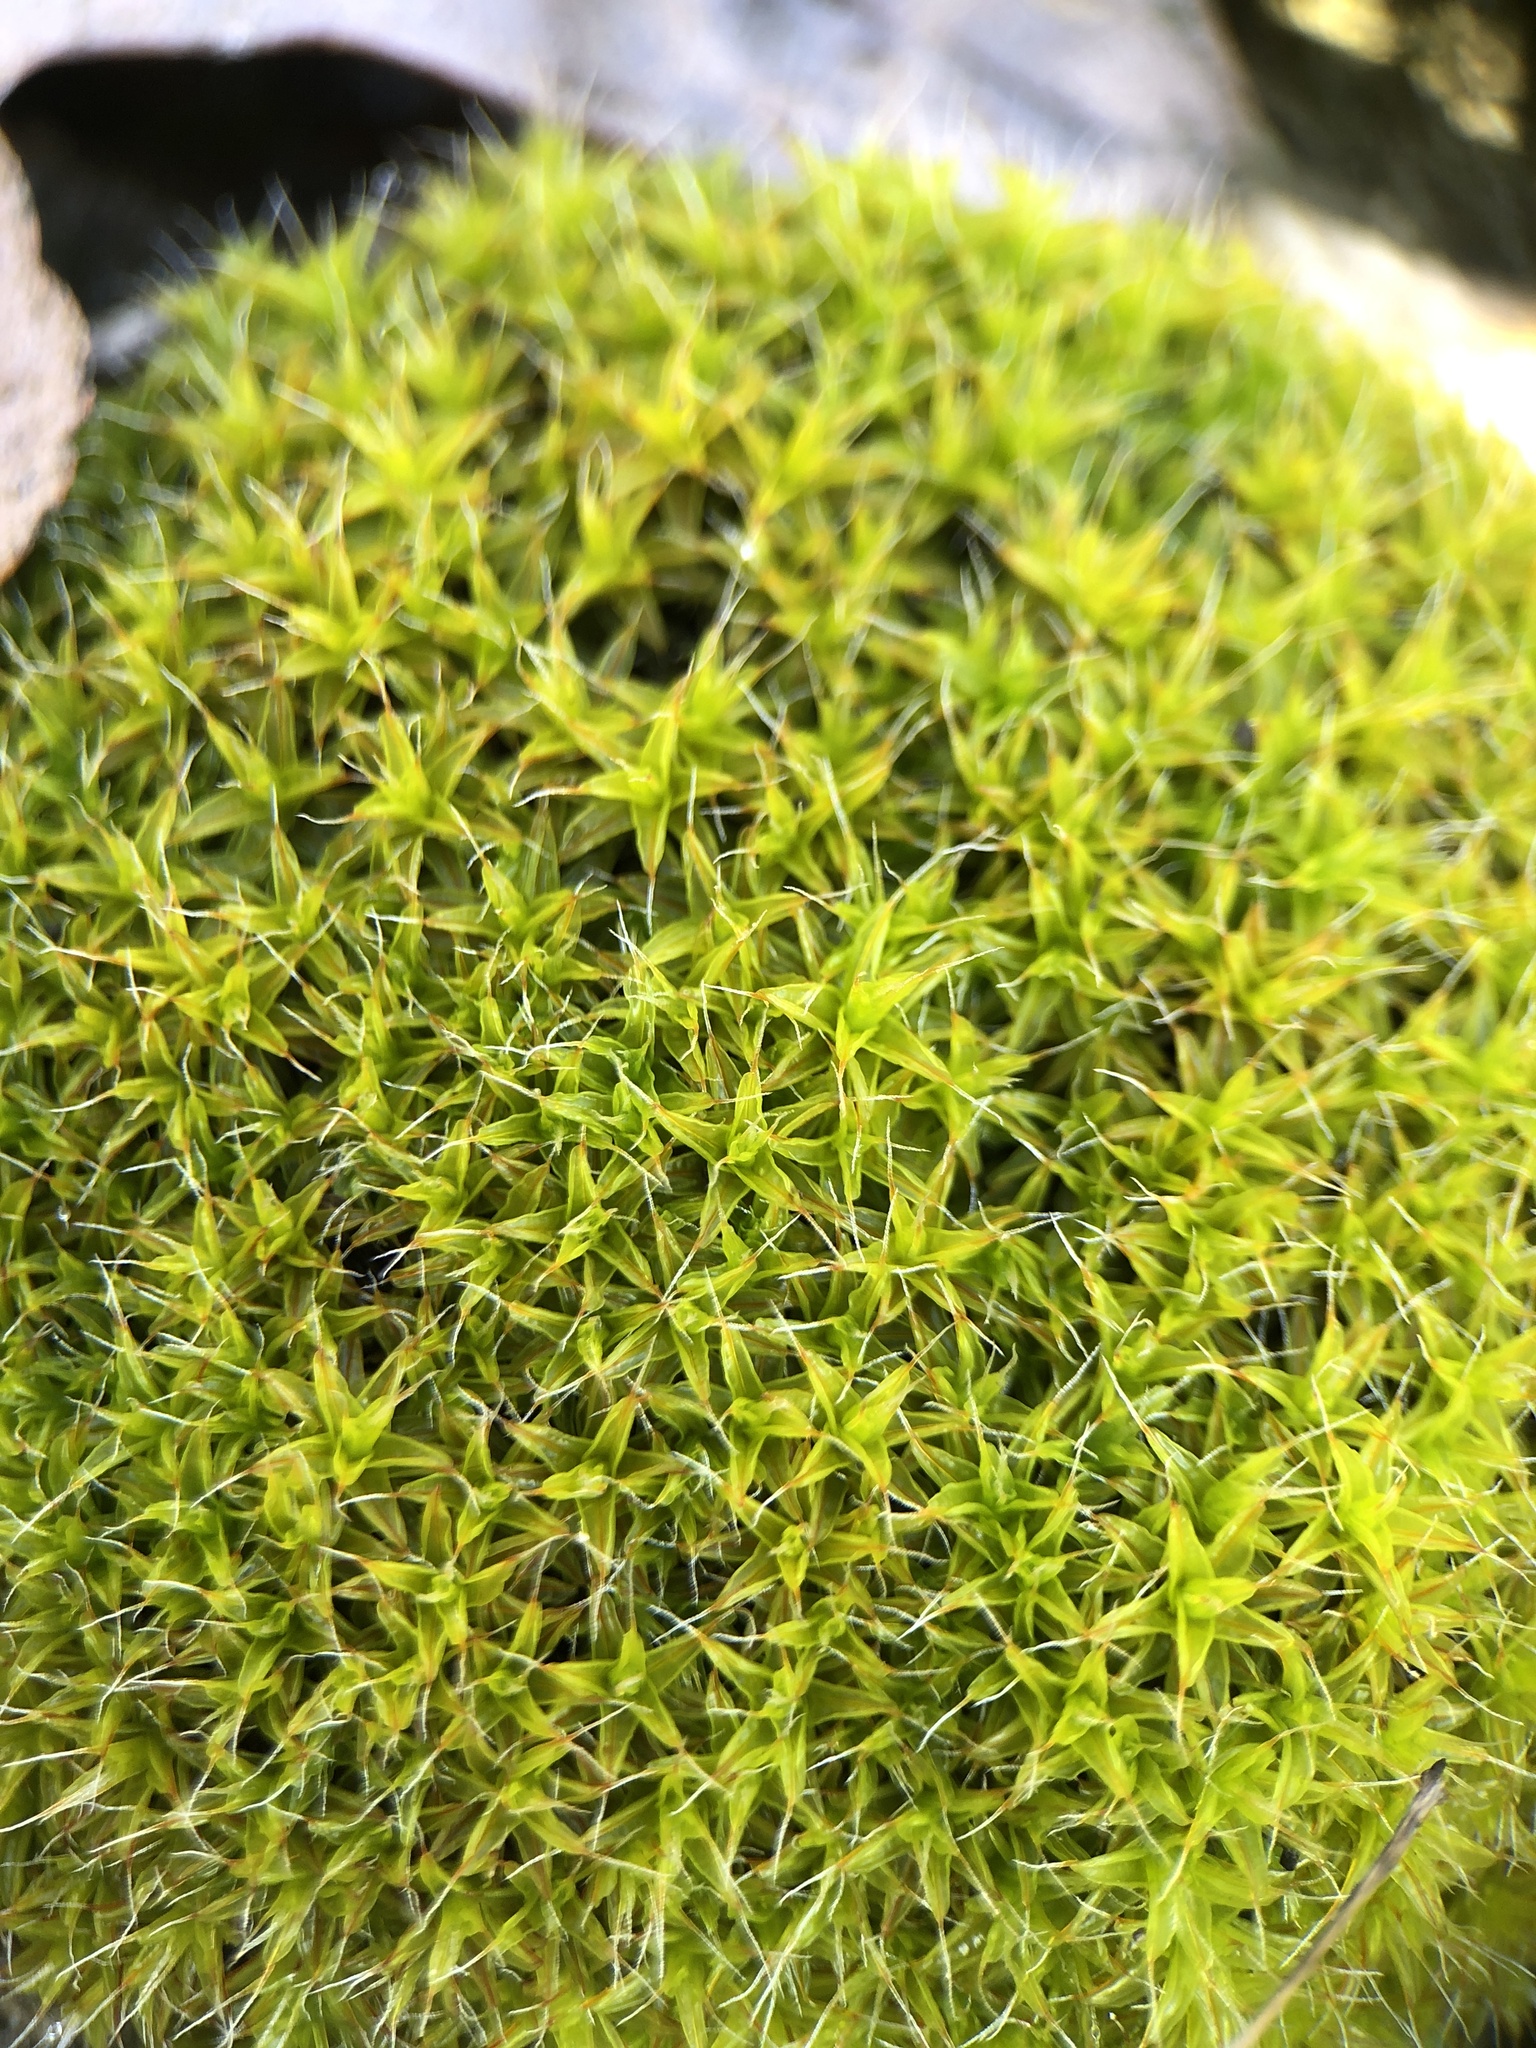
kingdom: Plantae
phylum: Bryophyta
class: Bryopsida
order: Pottiales
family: Pottiaceae
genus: Syntrichia
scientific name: Syntrichia ruralis
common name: Sidewalk screw moss
